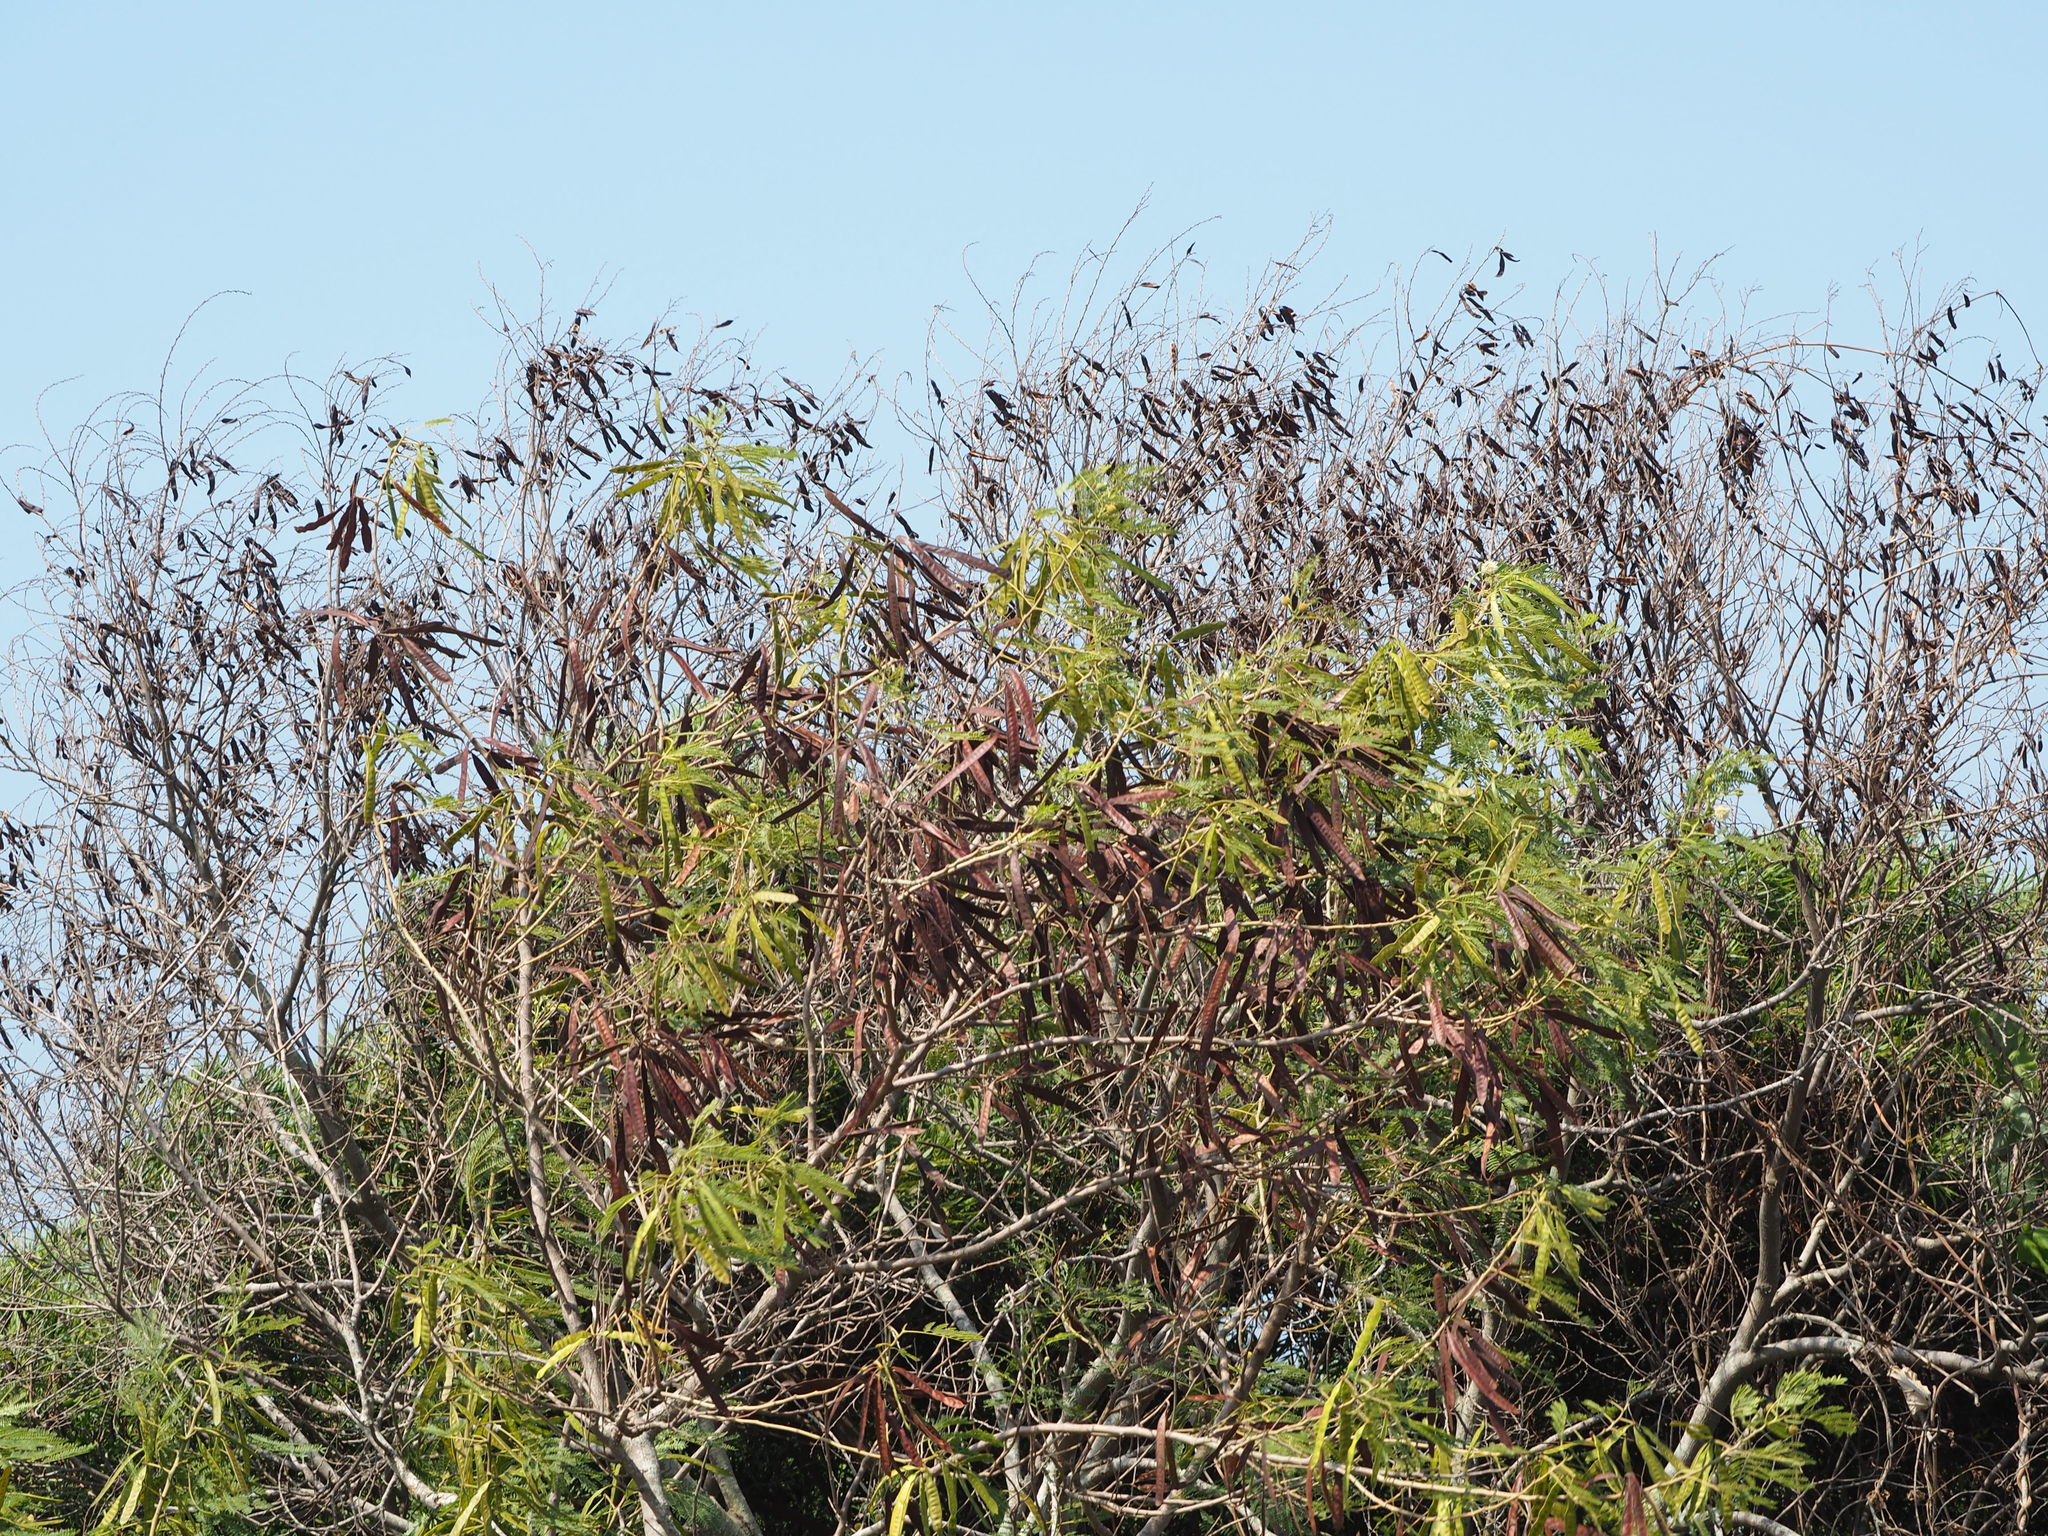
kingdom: Plantae
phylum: Tracheophyta
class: Magnoliopsida
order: Fabales
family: Fabaceae
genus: Leucaena
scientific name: Leucaena leucocephala
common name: White leadtree
